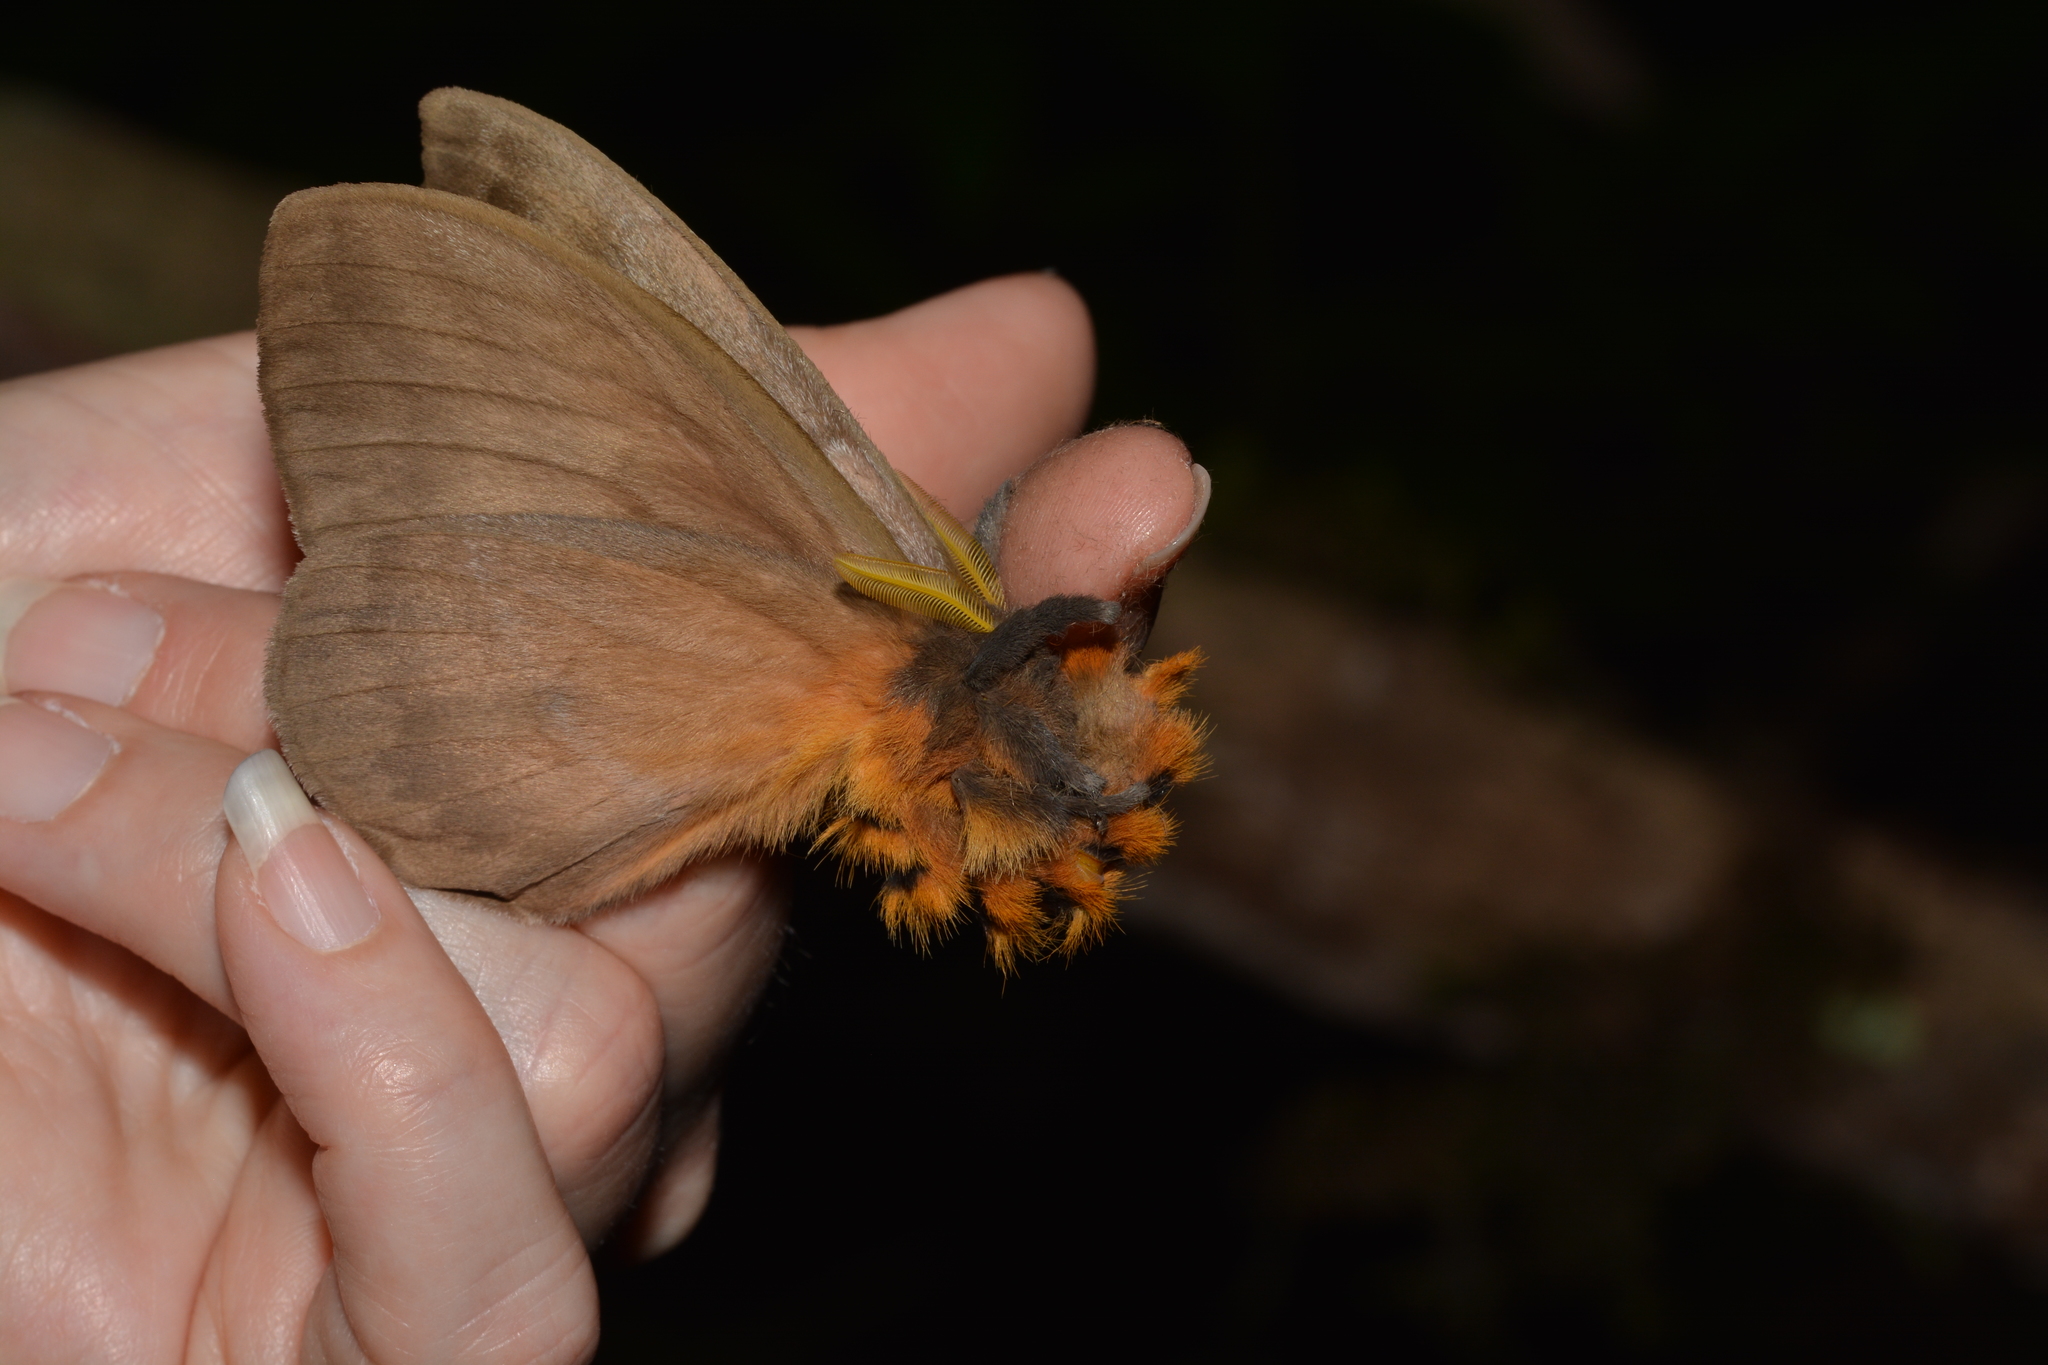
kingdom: Animalia
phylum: Arthropoda
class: Insecta
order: Lepidoptera
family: Saturniidae
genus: Periphoba
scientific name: Periphoba arcaei
